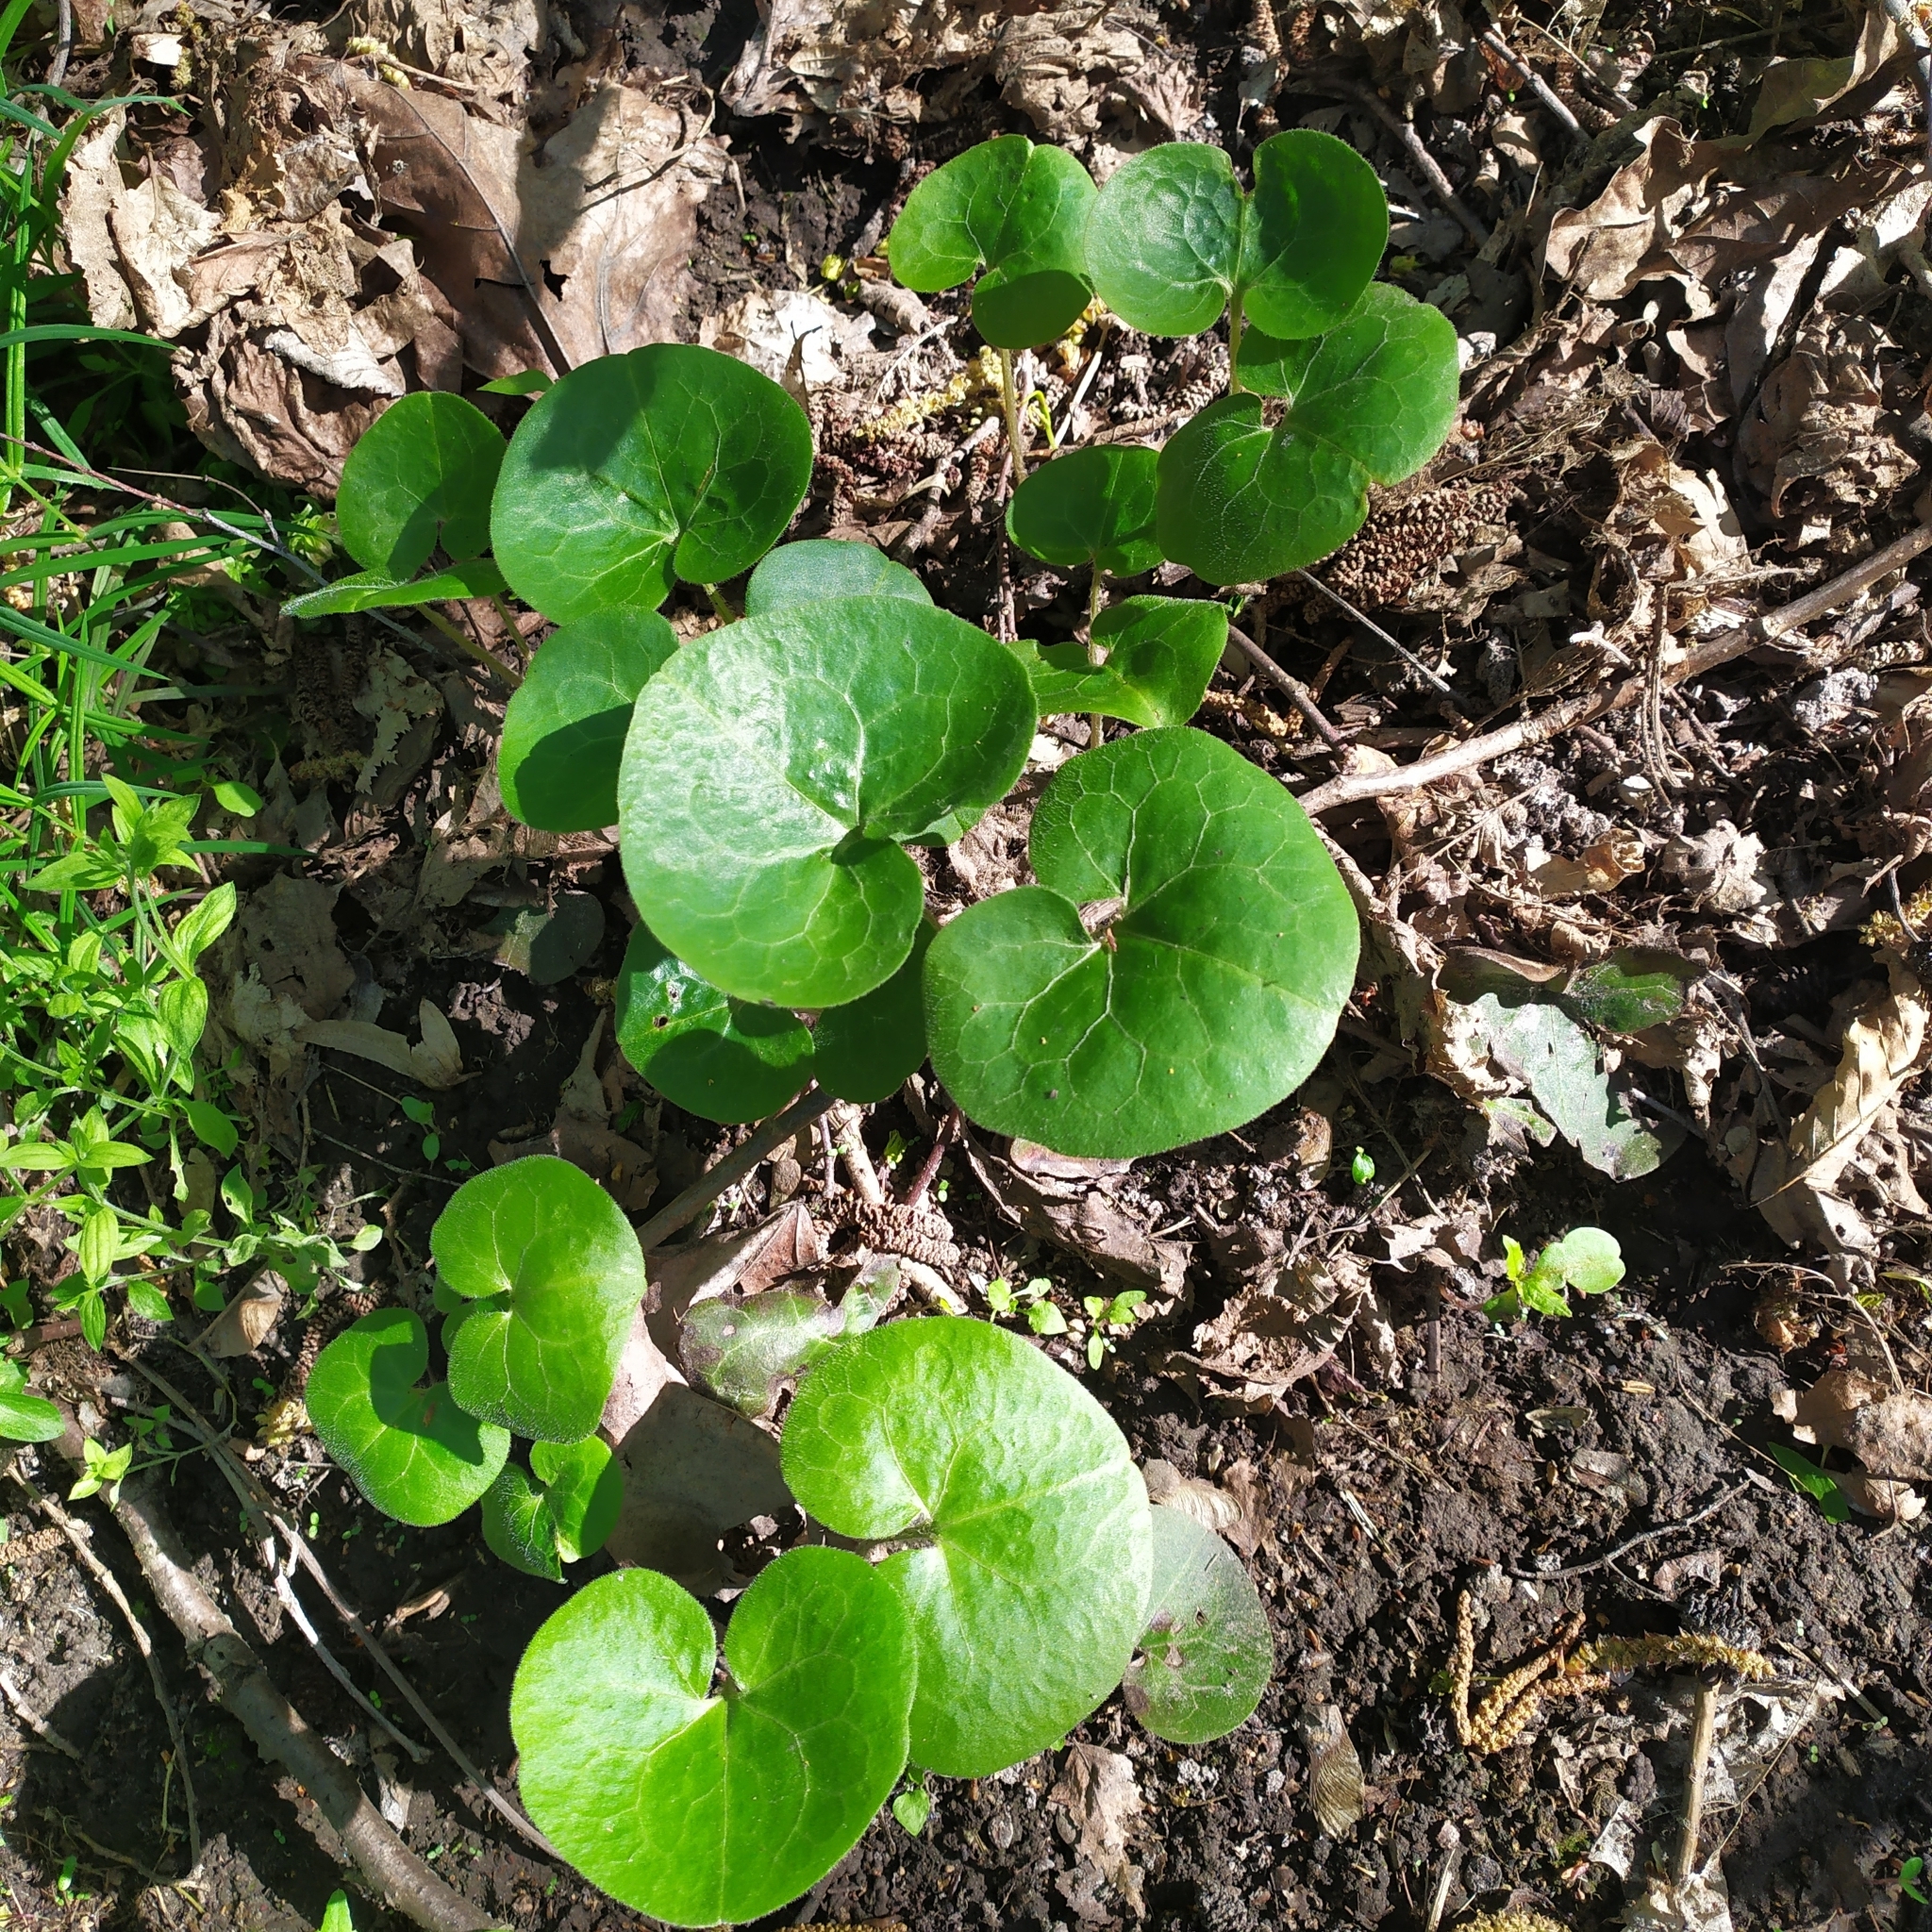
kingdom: Plantae
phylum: Tracheophyta
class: Magnoliopsida
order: Piperales
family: Aristolochiaceae
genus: Asarum
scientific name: Asarum europaeum
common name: Asarabacca
